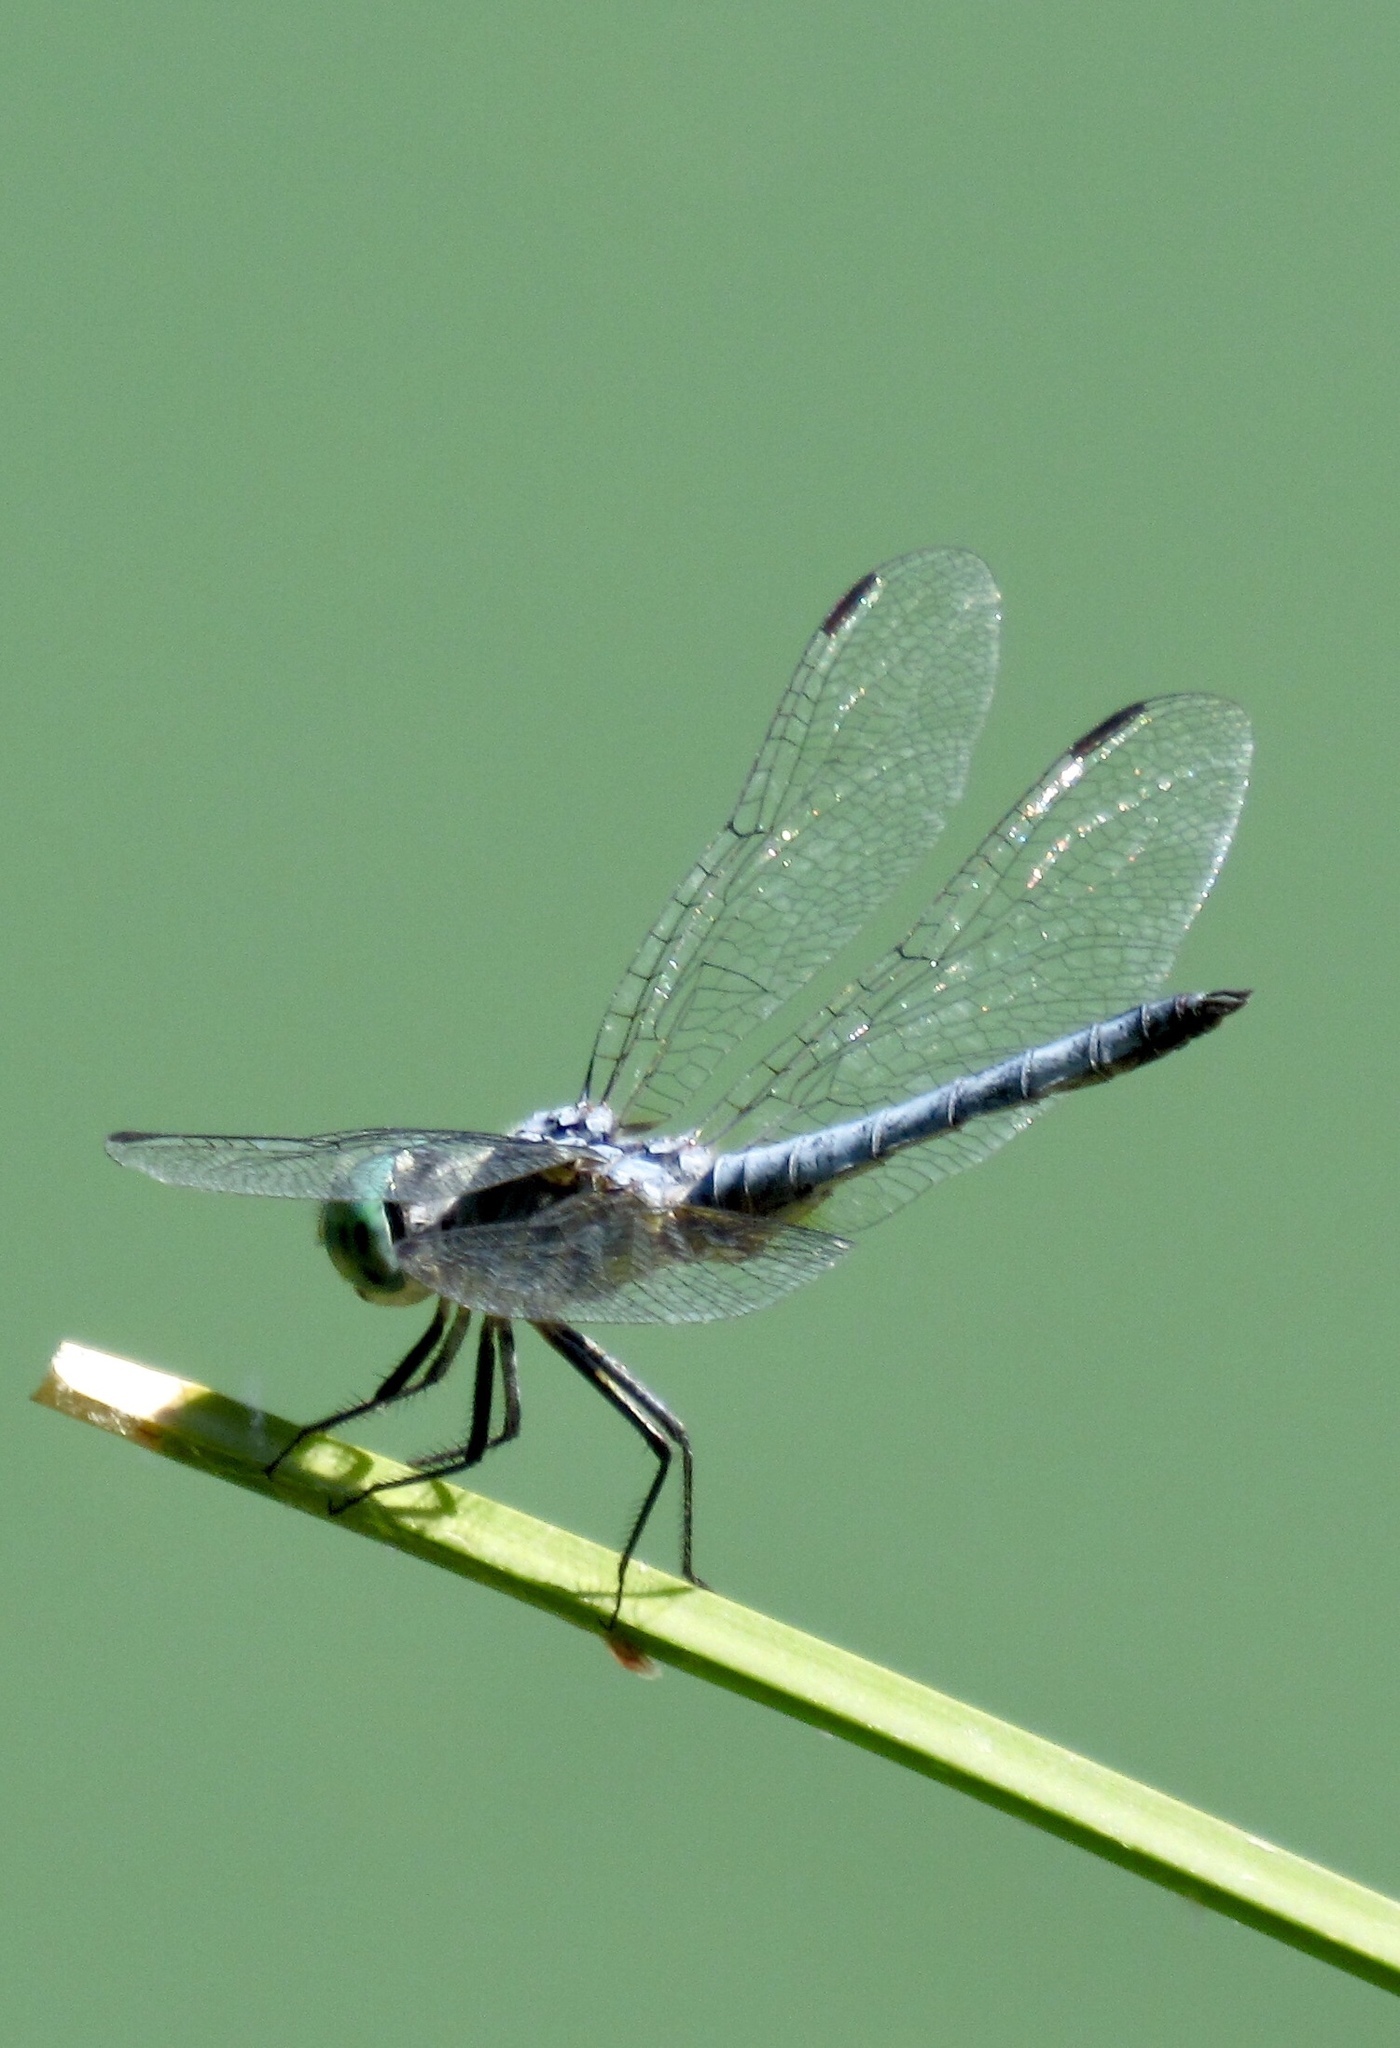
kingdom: Animalia
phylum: Arthropoda
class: Insecta
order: Odonata
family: Libellulidae
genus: Pachydiplax
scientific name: Pachydiplax longipennis
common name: Blue dasher
